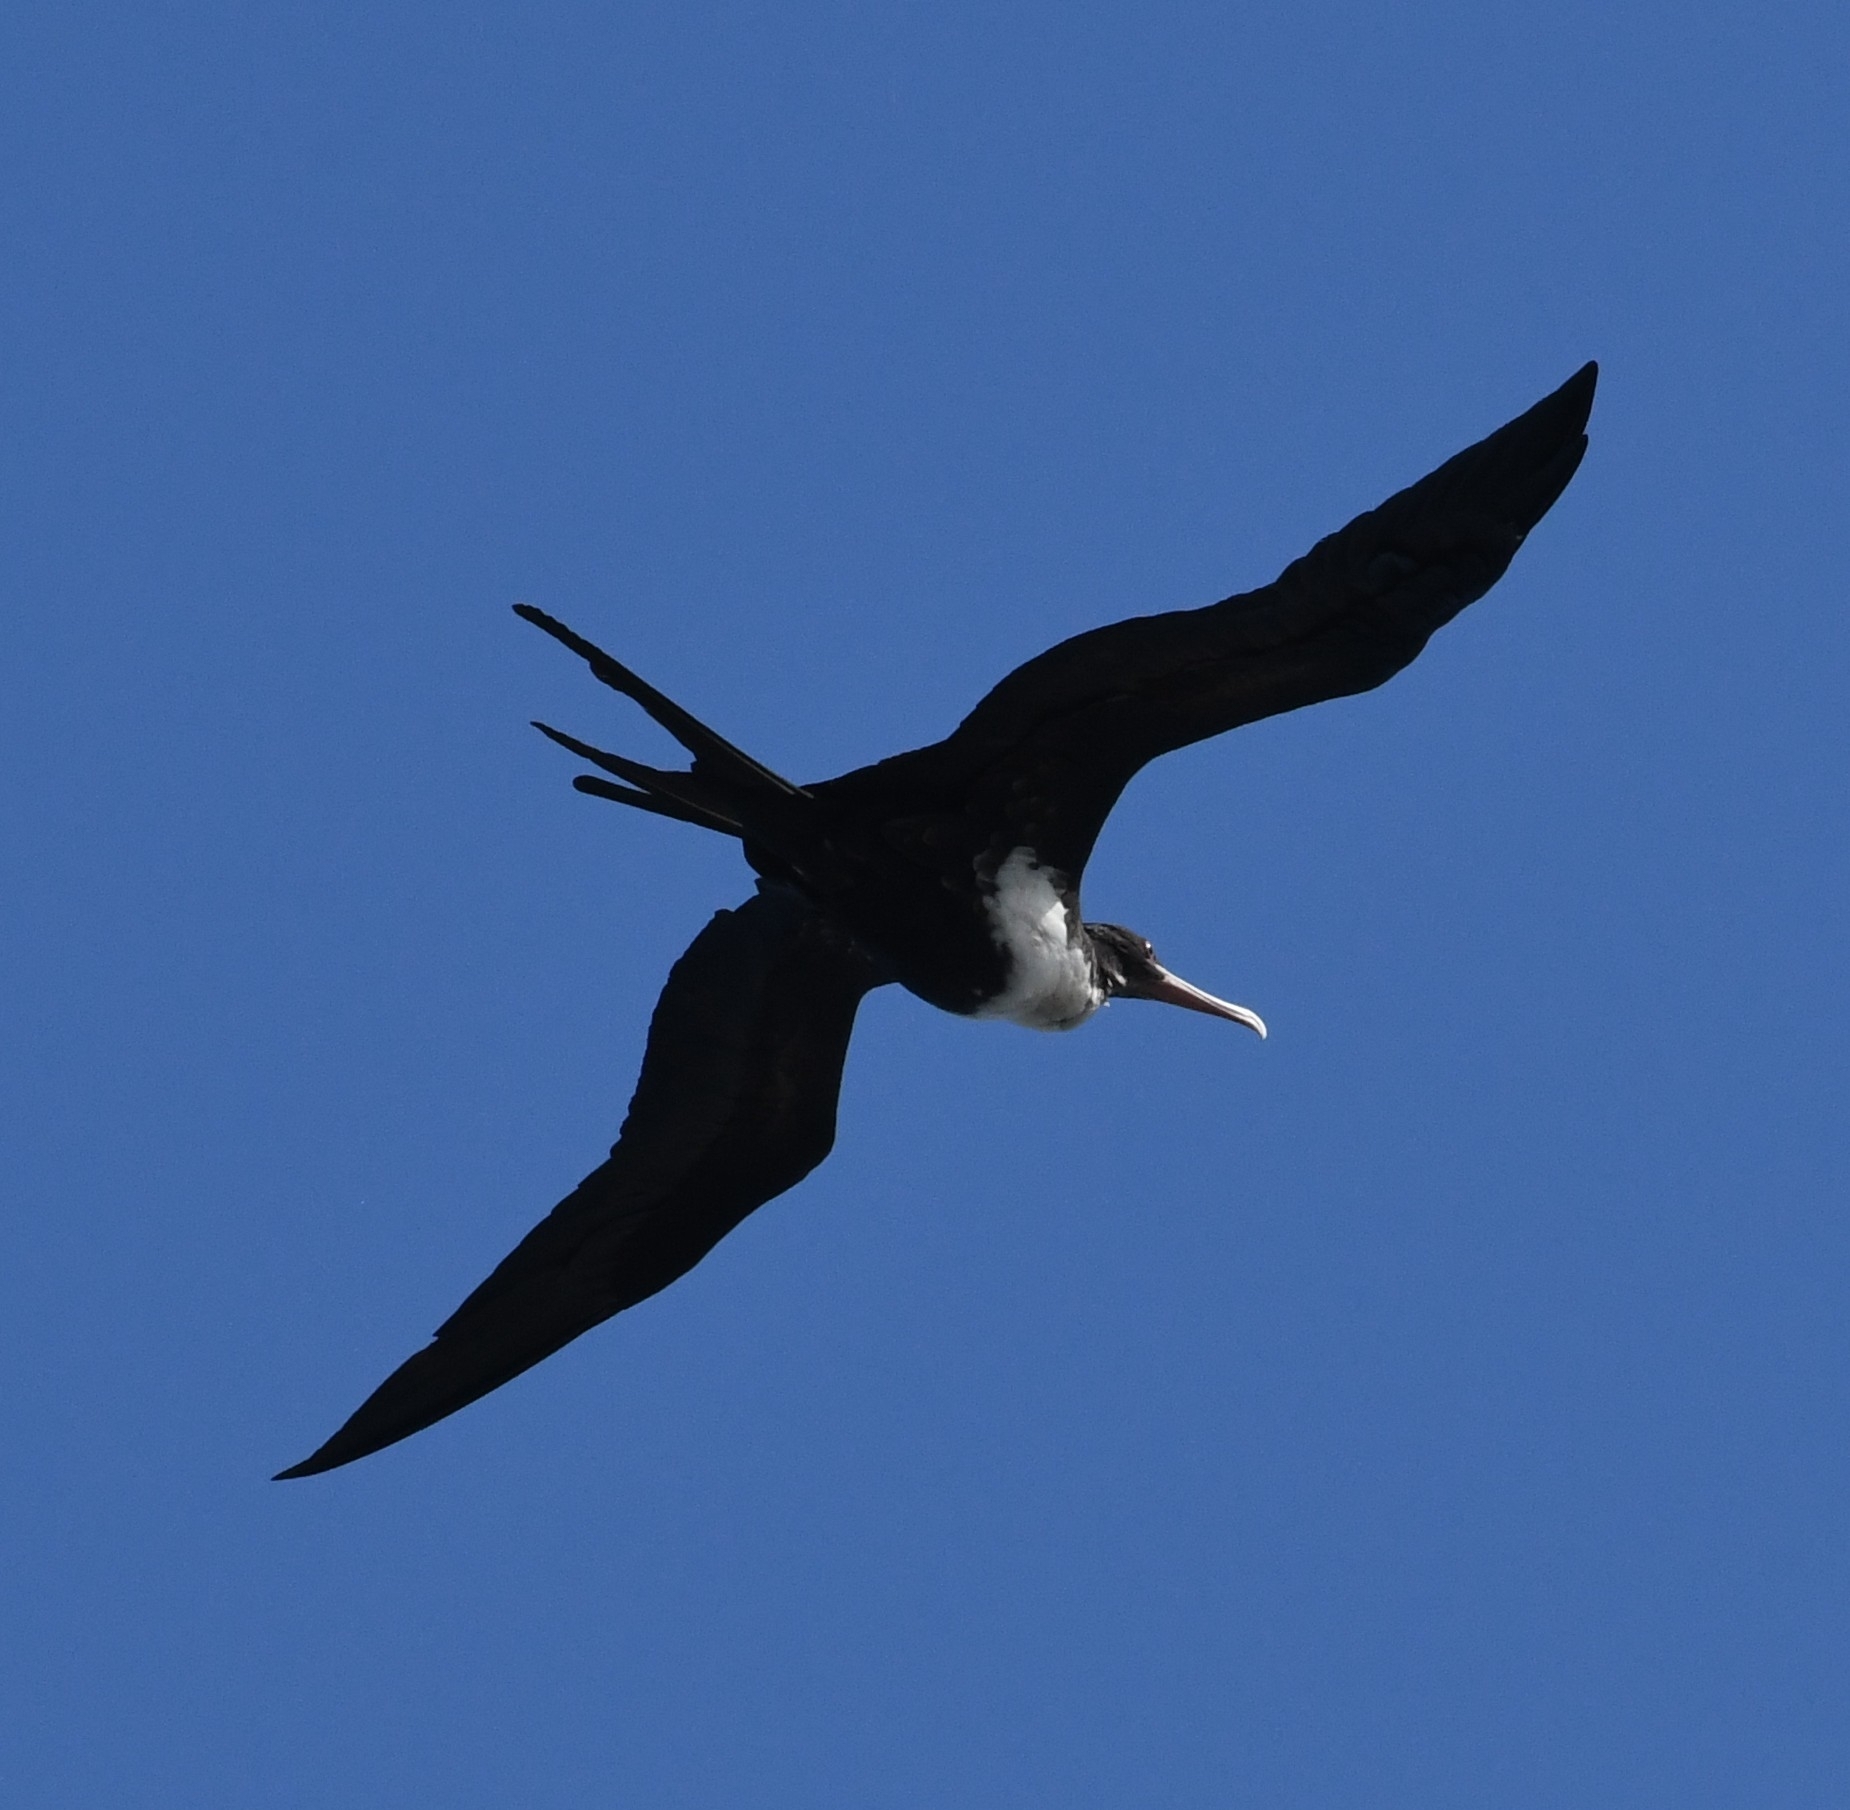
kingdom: Animalia
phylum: Chordata
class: Aves
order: Suliformes
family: Fregatidae
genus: Fregata
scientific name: Fregata minor
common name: Great frigatebird
